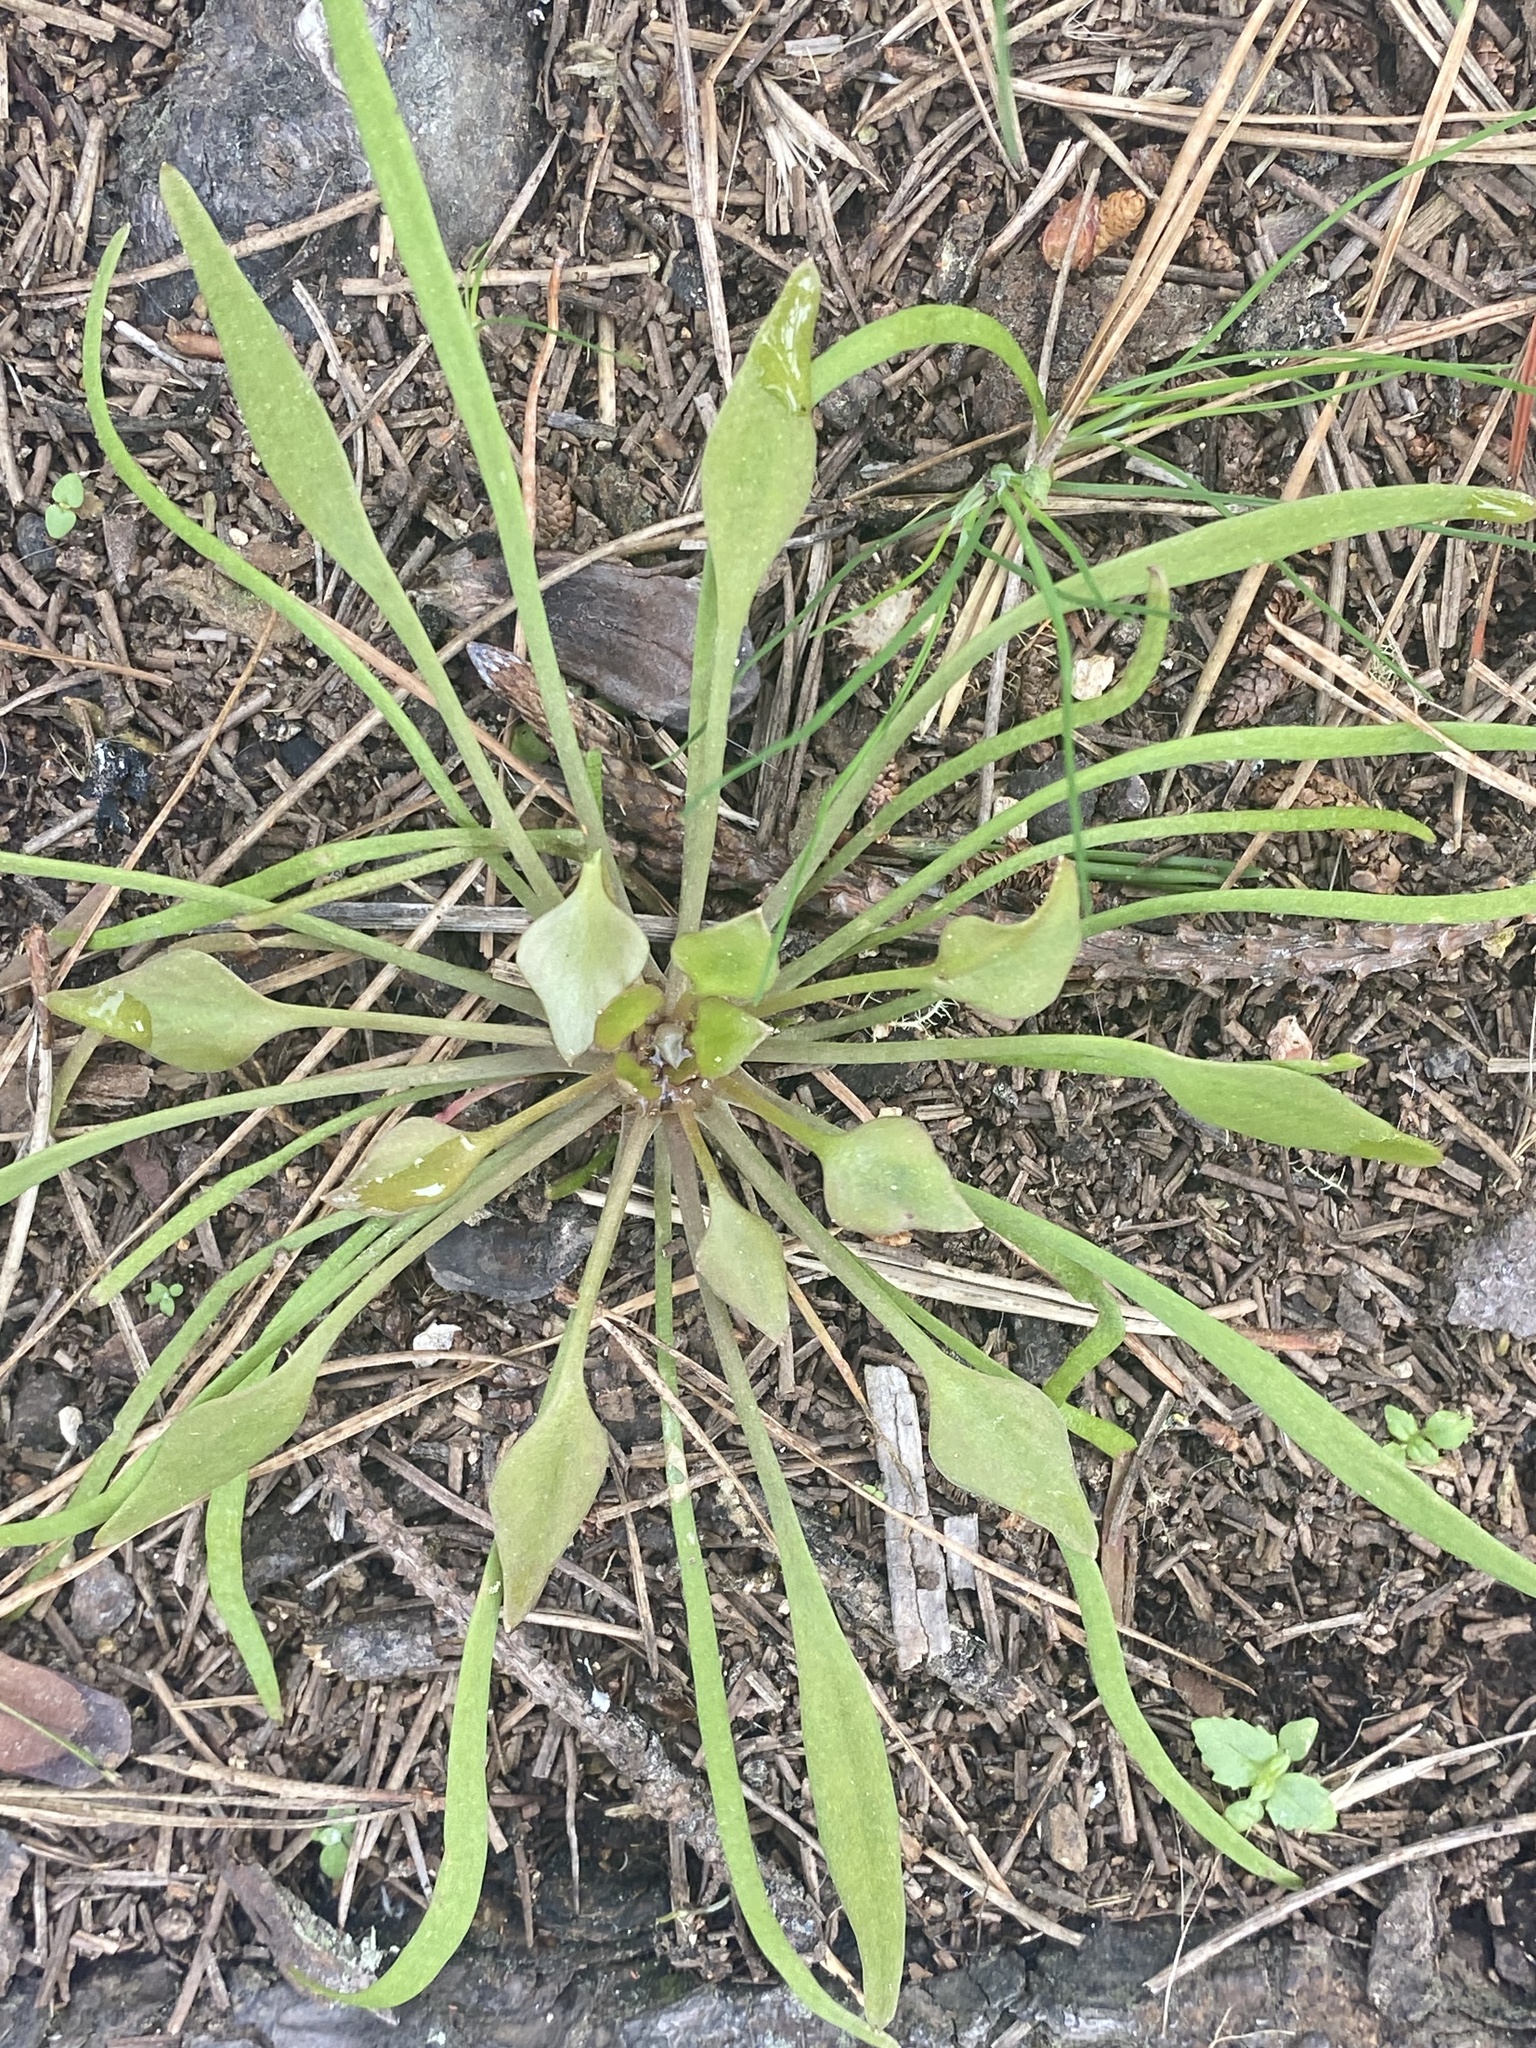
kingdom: Plantae
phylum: Tracheophyta
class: Magnoliopsida
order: Caryophyllales
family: Montiaceae
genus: Claytonia
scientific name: Claytonia perfoliata
